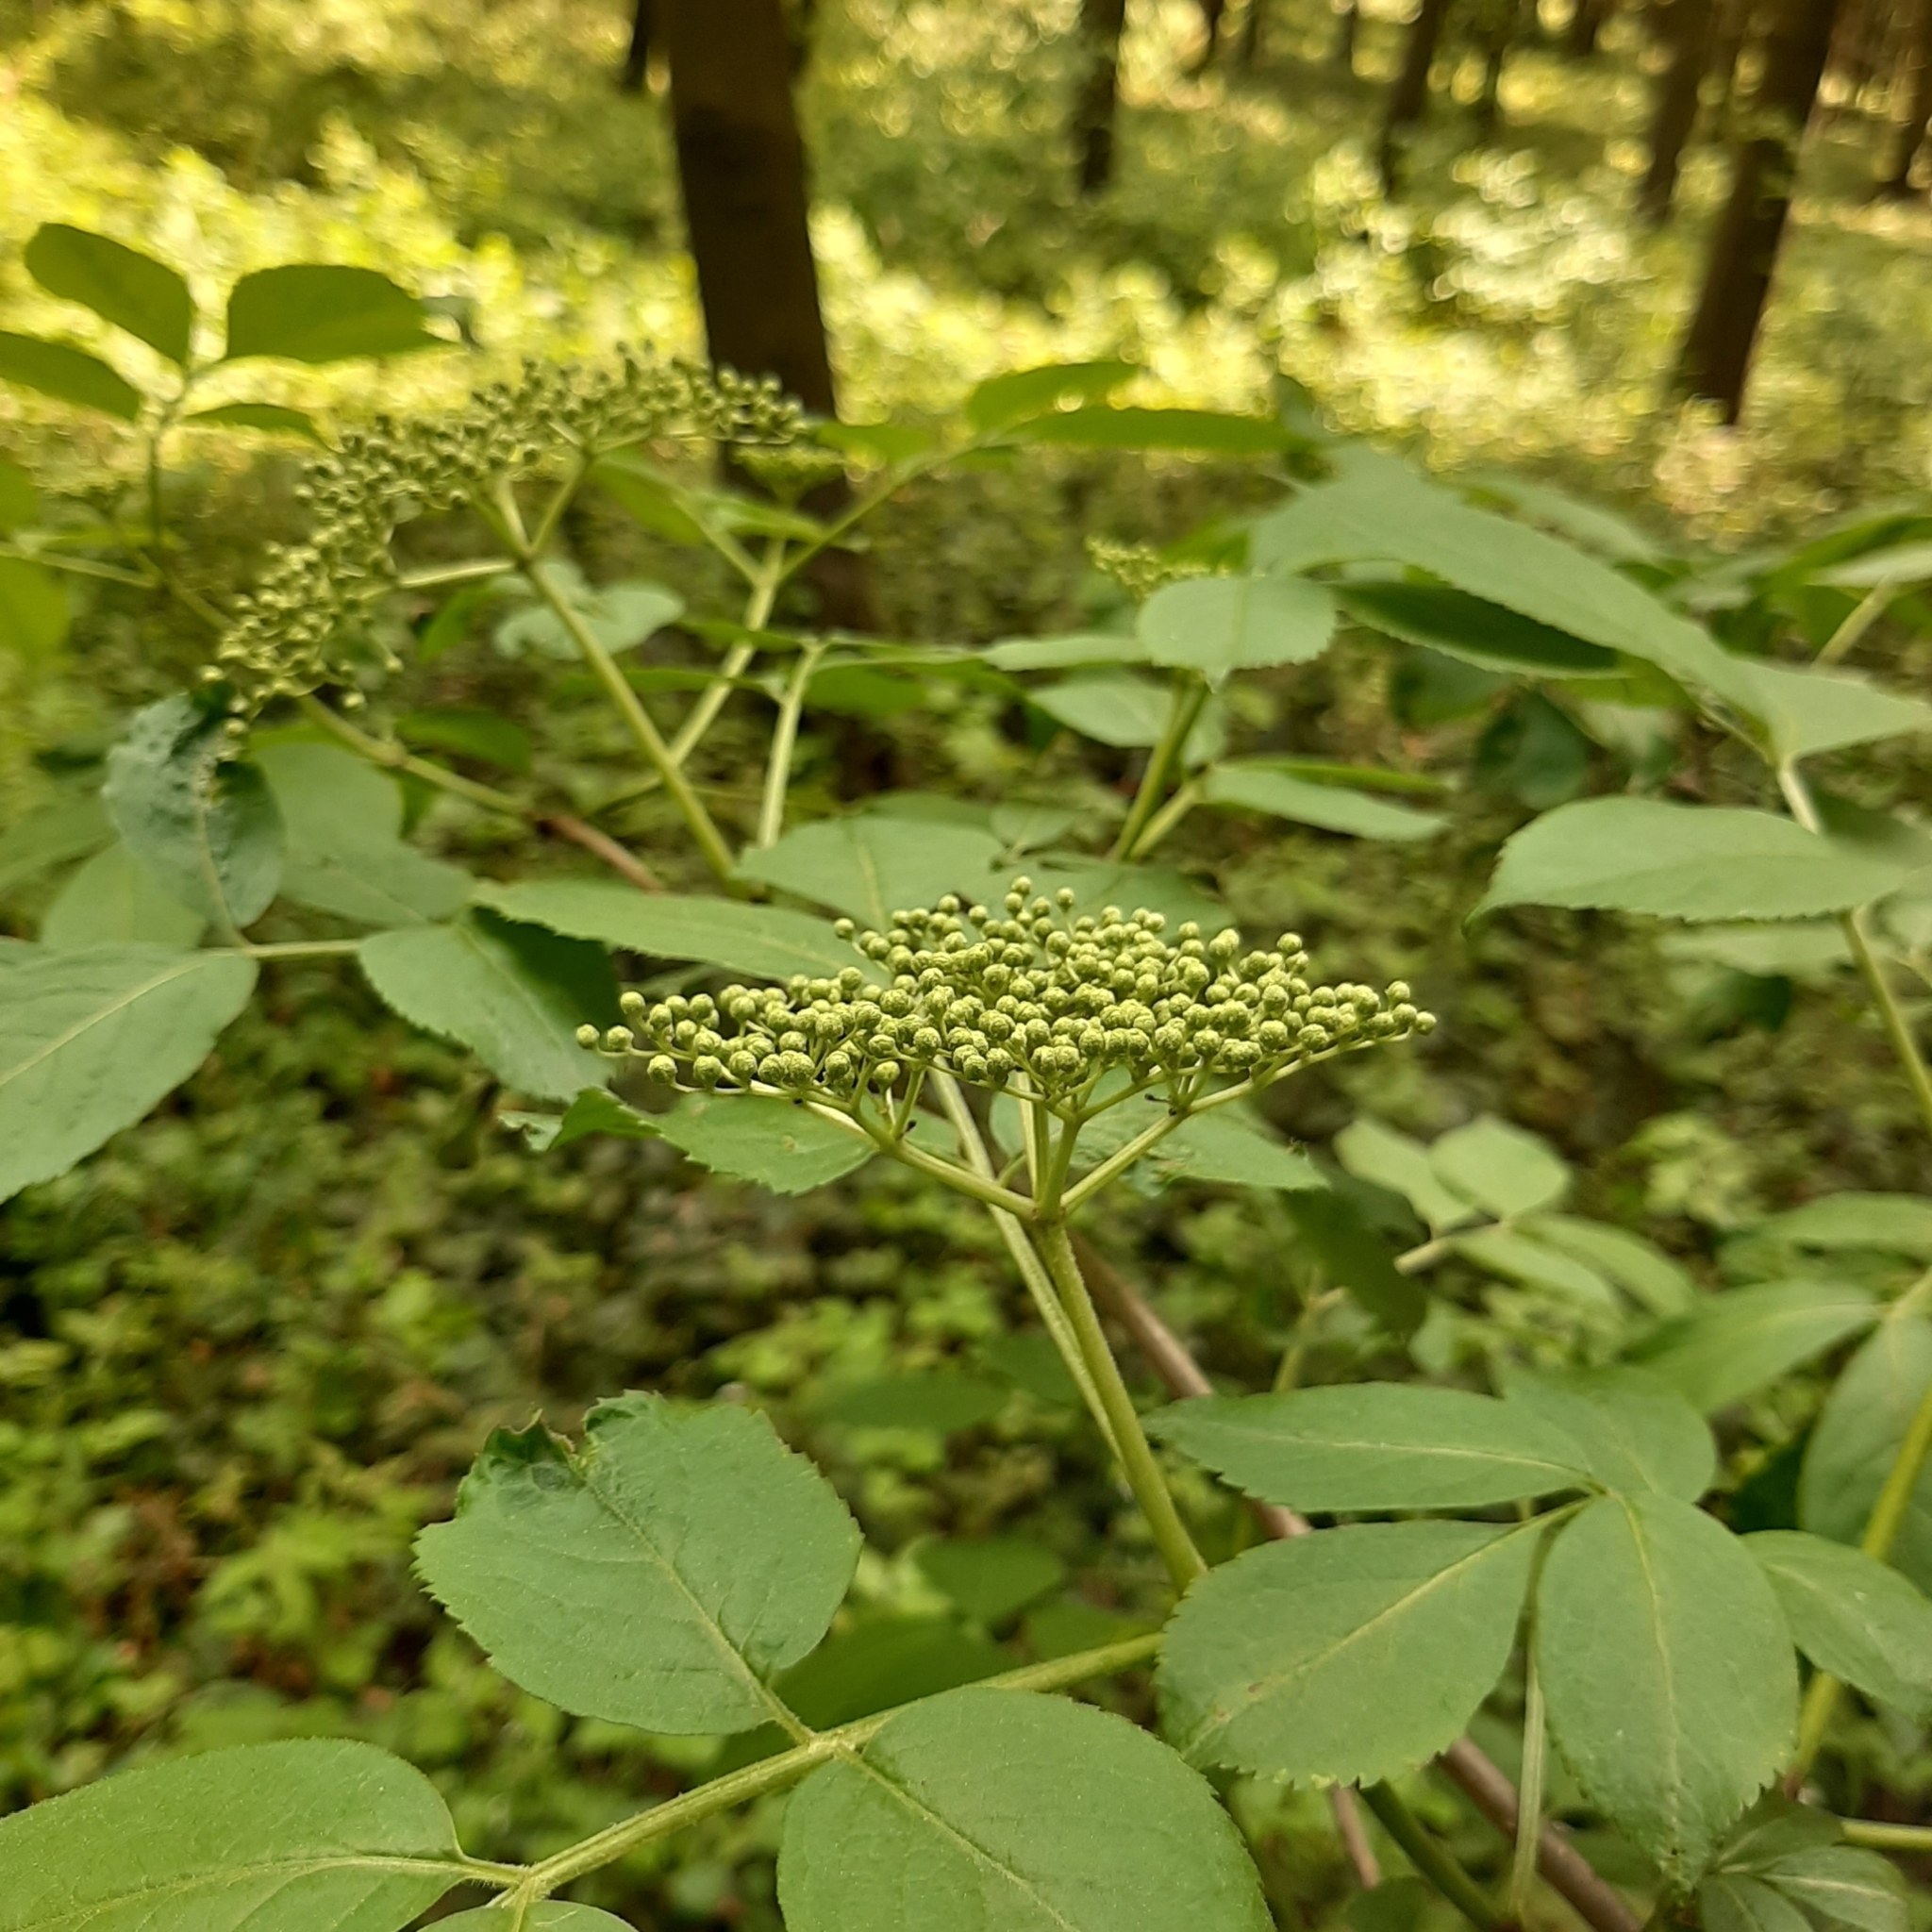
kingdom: Plantae
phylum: Tracheophyta
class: Magnoliopsida
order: Dipsacales
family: Viburnaceae
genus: Sambucus
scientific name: Sambucus nigra
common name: Elder
